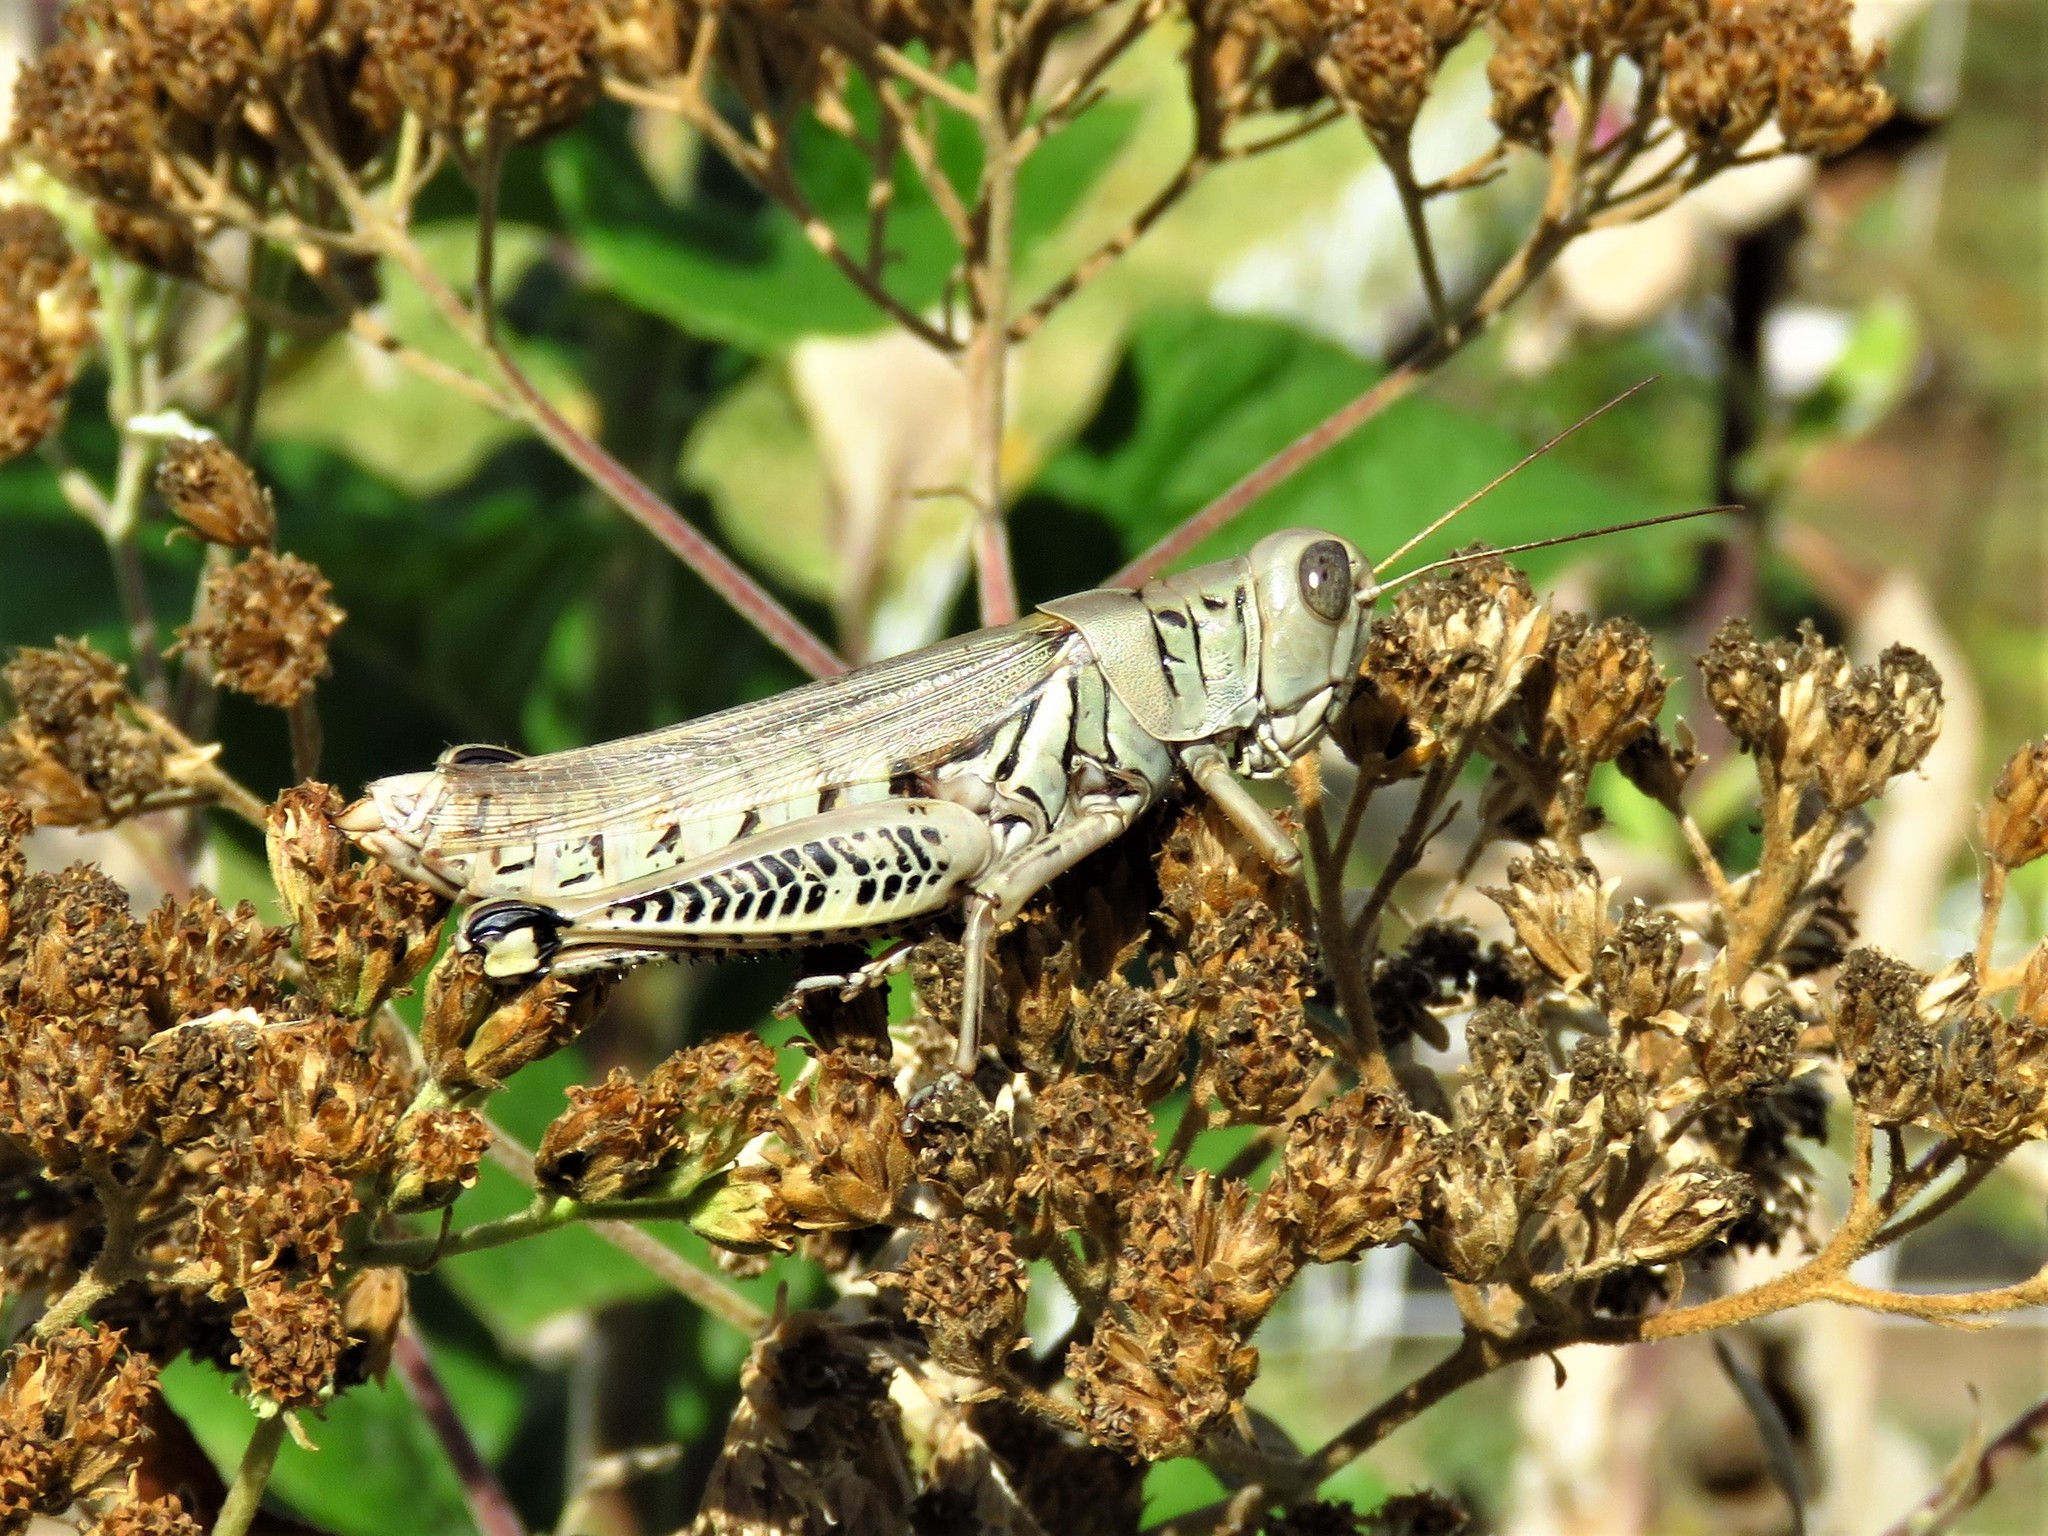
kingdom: Animalia
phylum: Arthropoda
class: Insecta
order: Orthoptera
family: Acrididae
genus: Melanoplus
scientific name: Melanoplus differentialis
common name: Differential grasshopper
